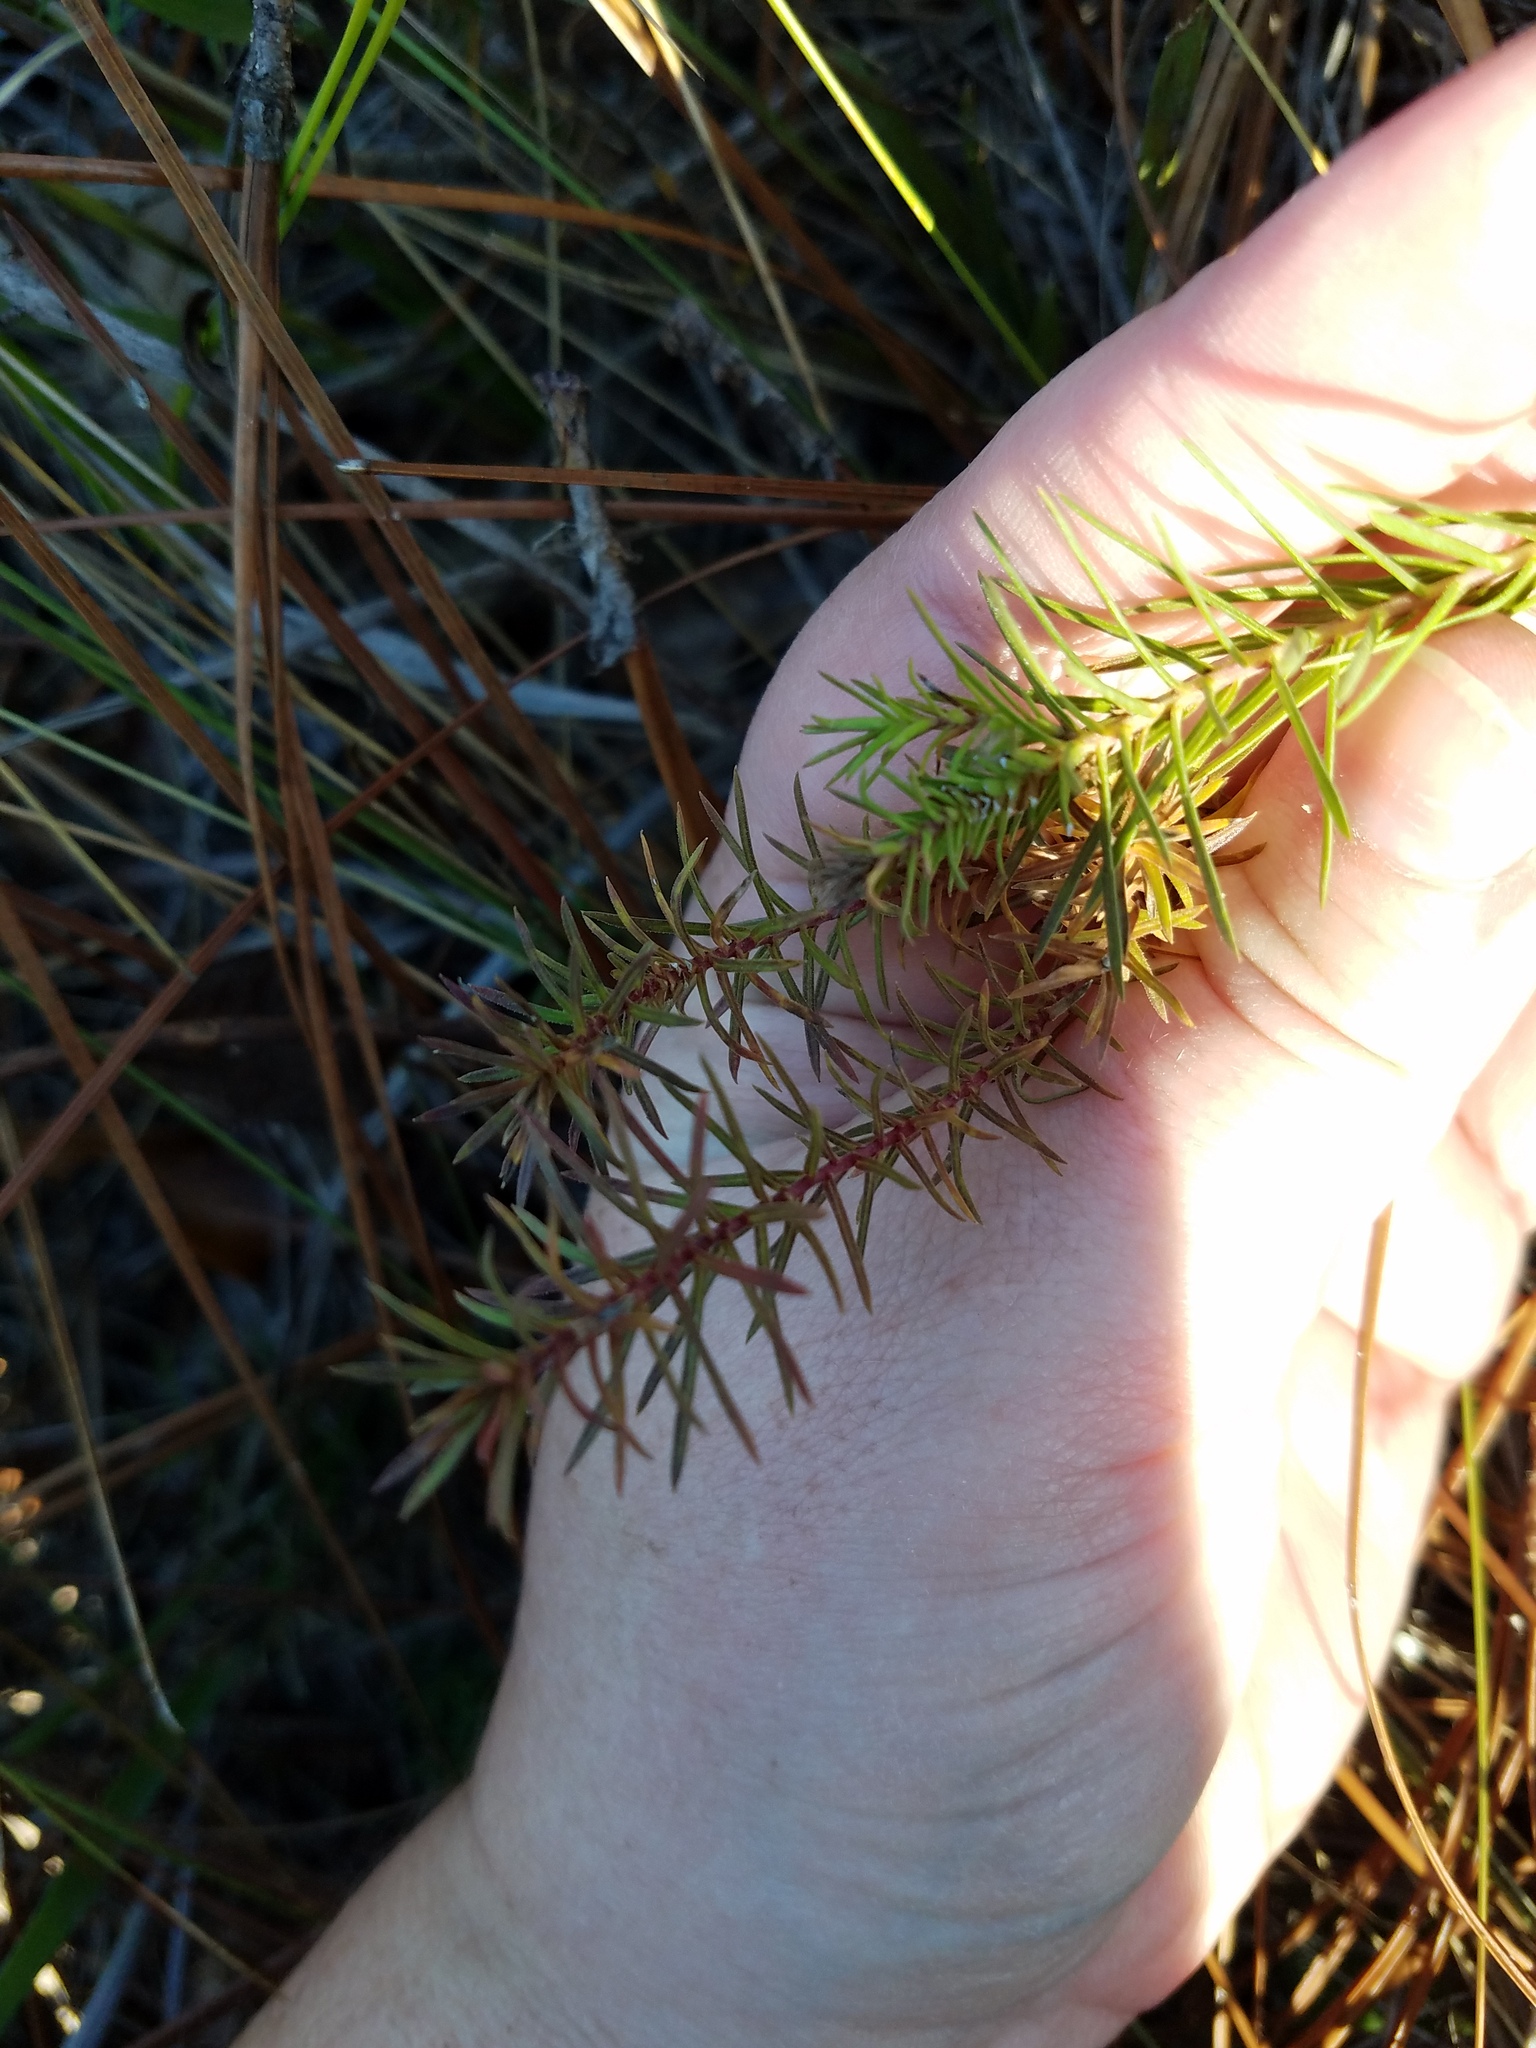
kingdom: Plantae
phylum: Tracheophyta
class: Magnoliopsida
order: Asterales
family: Asteraceae
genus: Ionactis
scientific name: Ionactis repens
